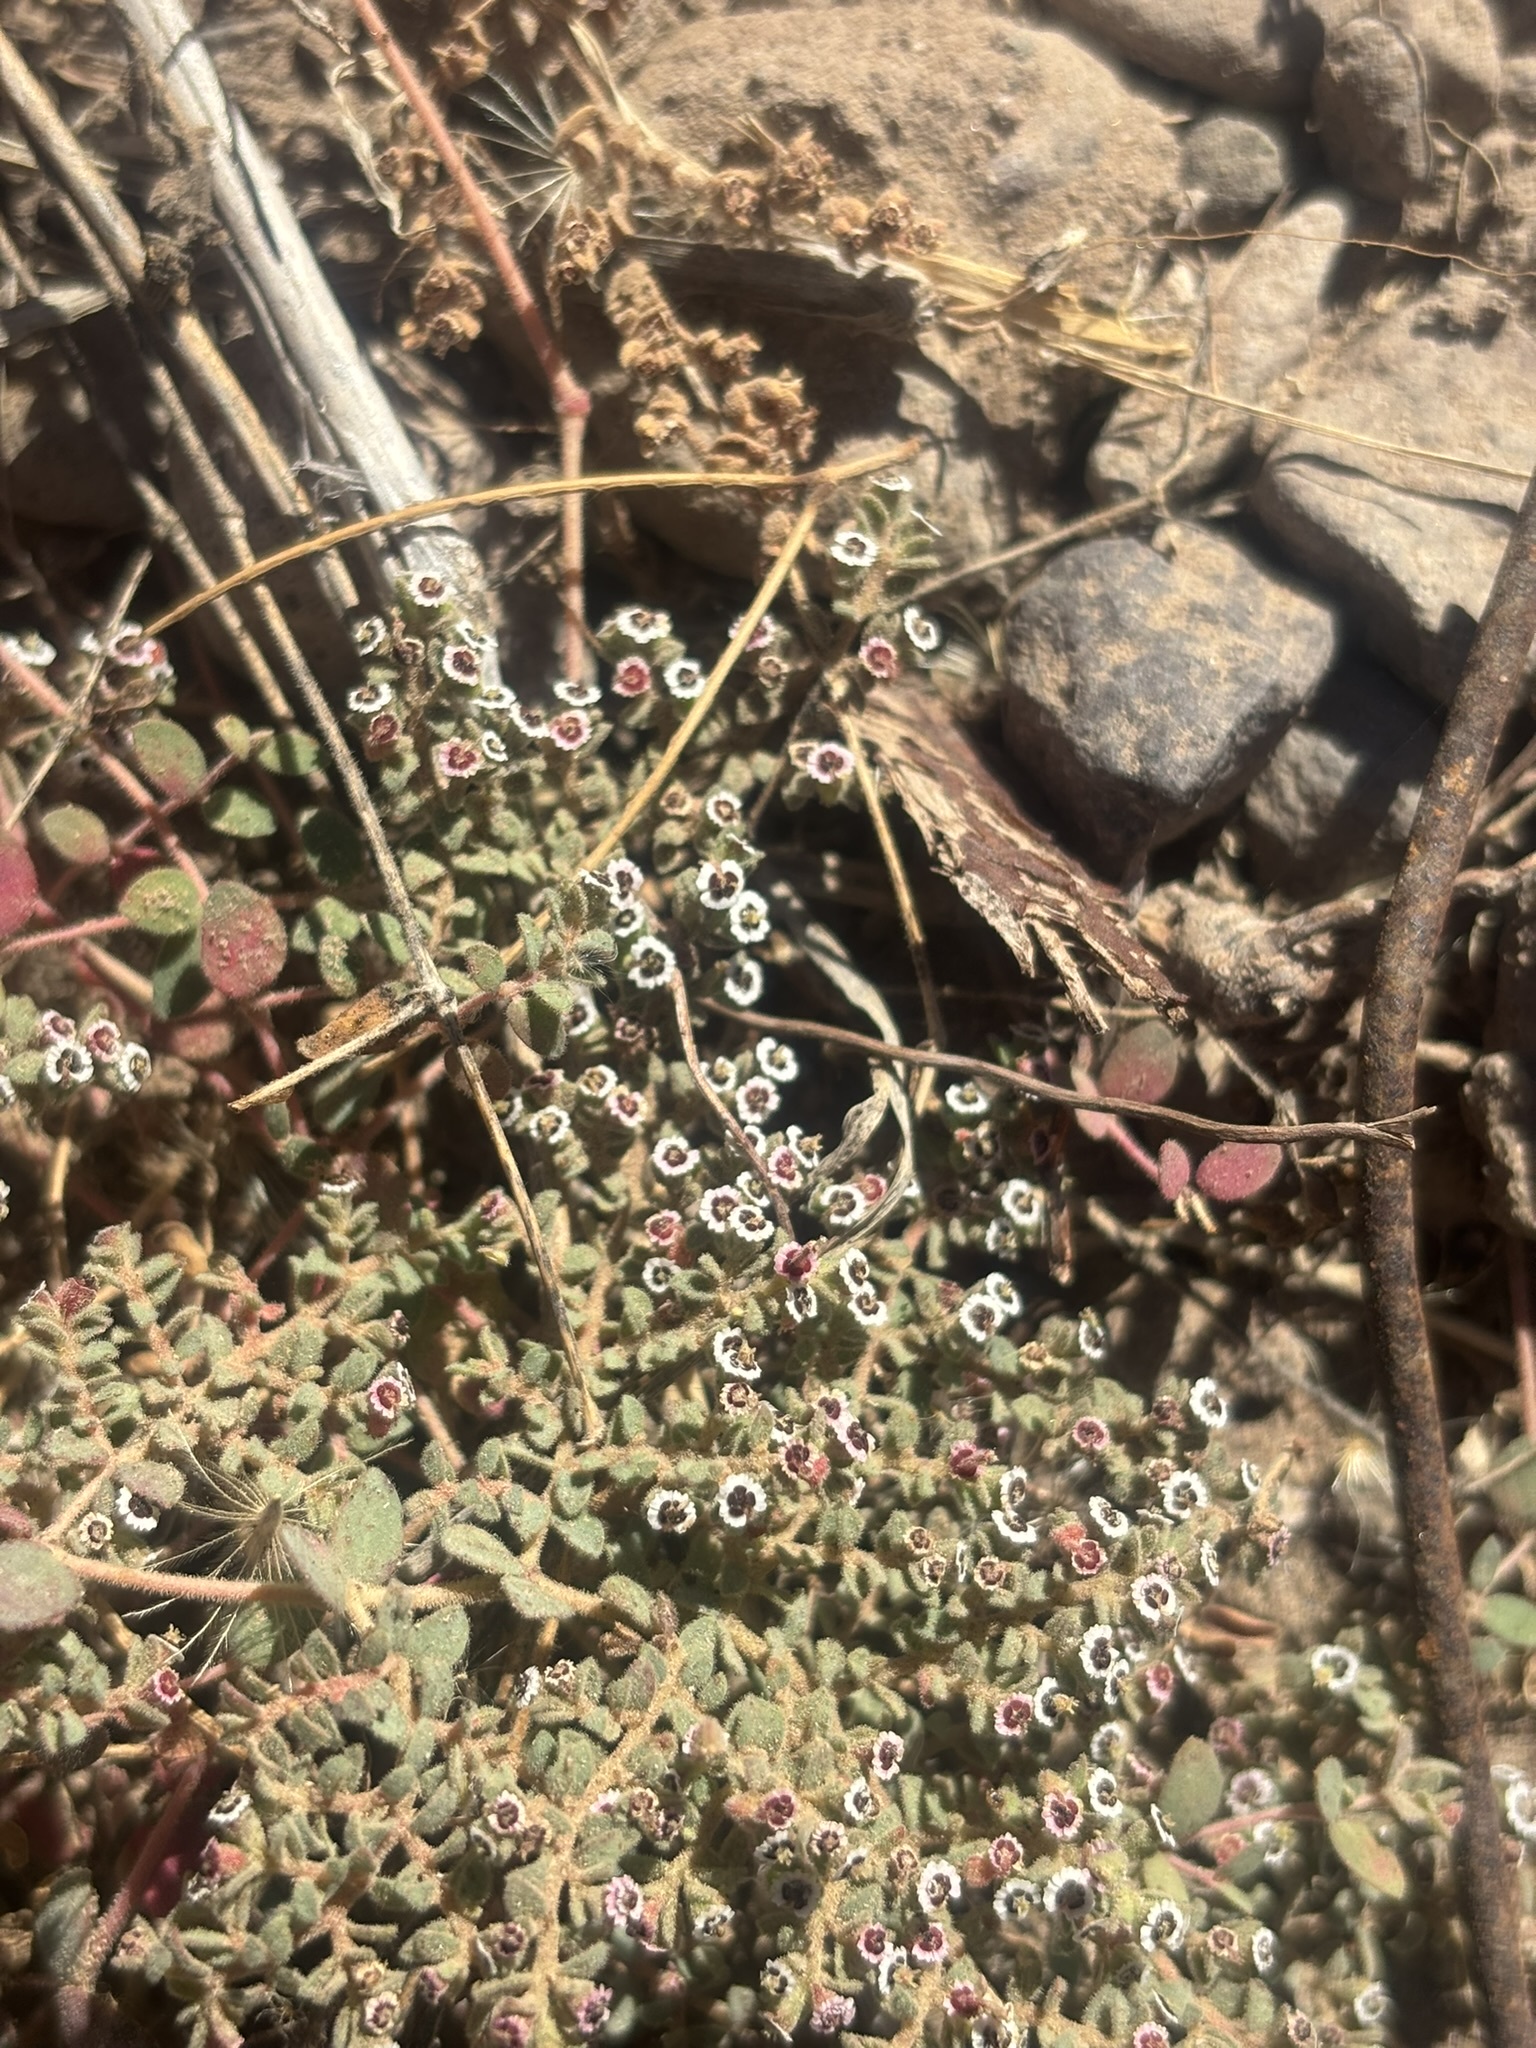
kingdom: Plantae
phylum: Tracheophyta
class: Magnoliopsida
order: Malpighiales
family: Euphorbiaceae
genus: Euphorbia
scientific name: Euphorbia polycarpa
